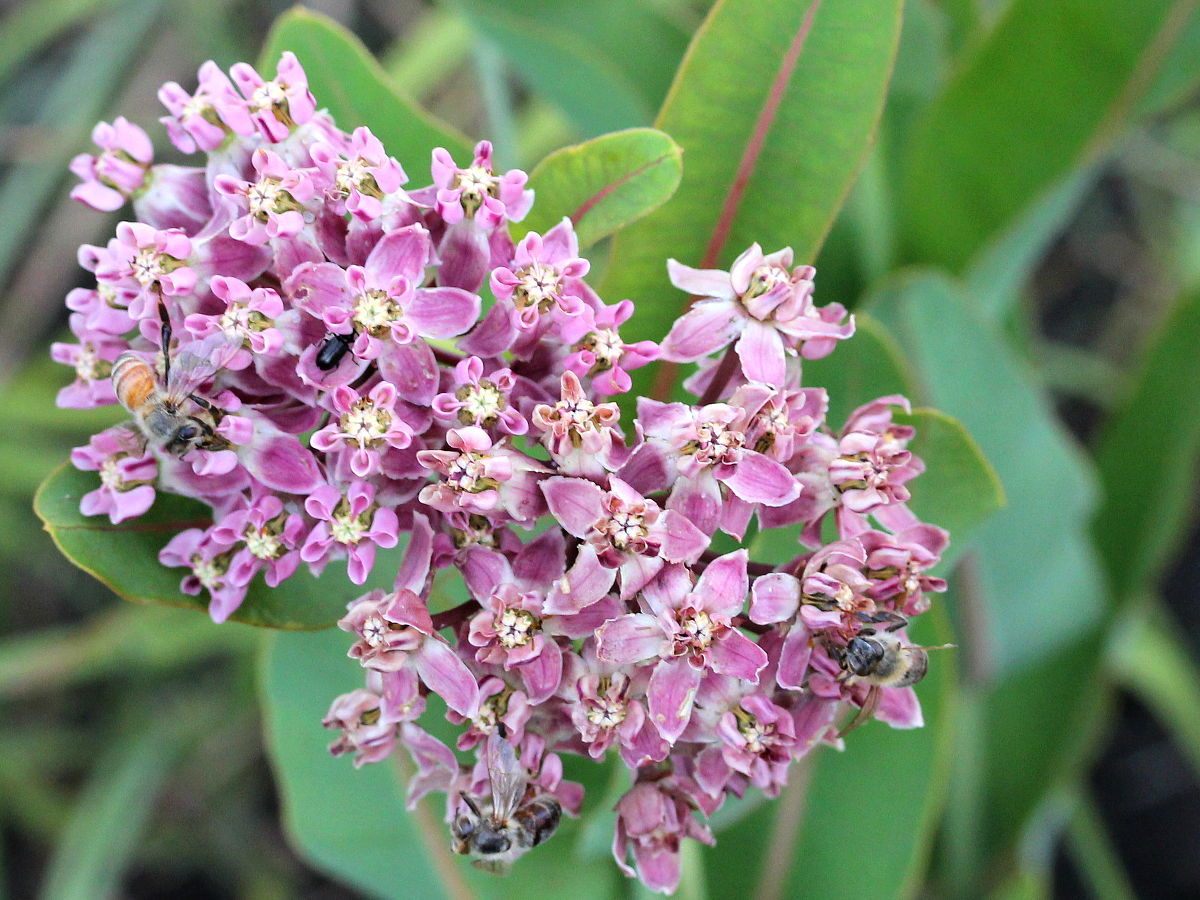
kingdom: Plantae
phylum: Tracheophyta
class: Magnoliopsida
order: Gentianales
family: Apocynaceae
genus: Asclepias
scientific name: Asclepias sullivantii
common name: Prairie milkweed
